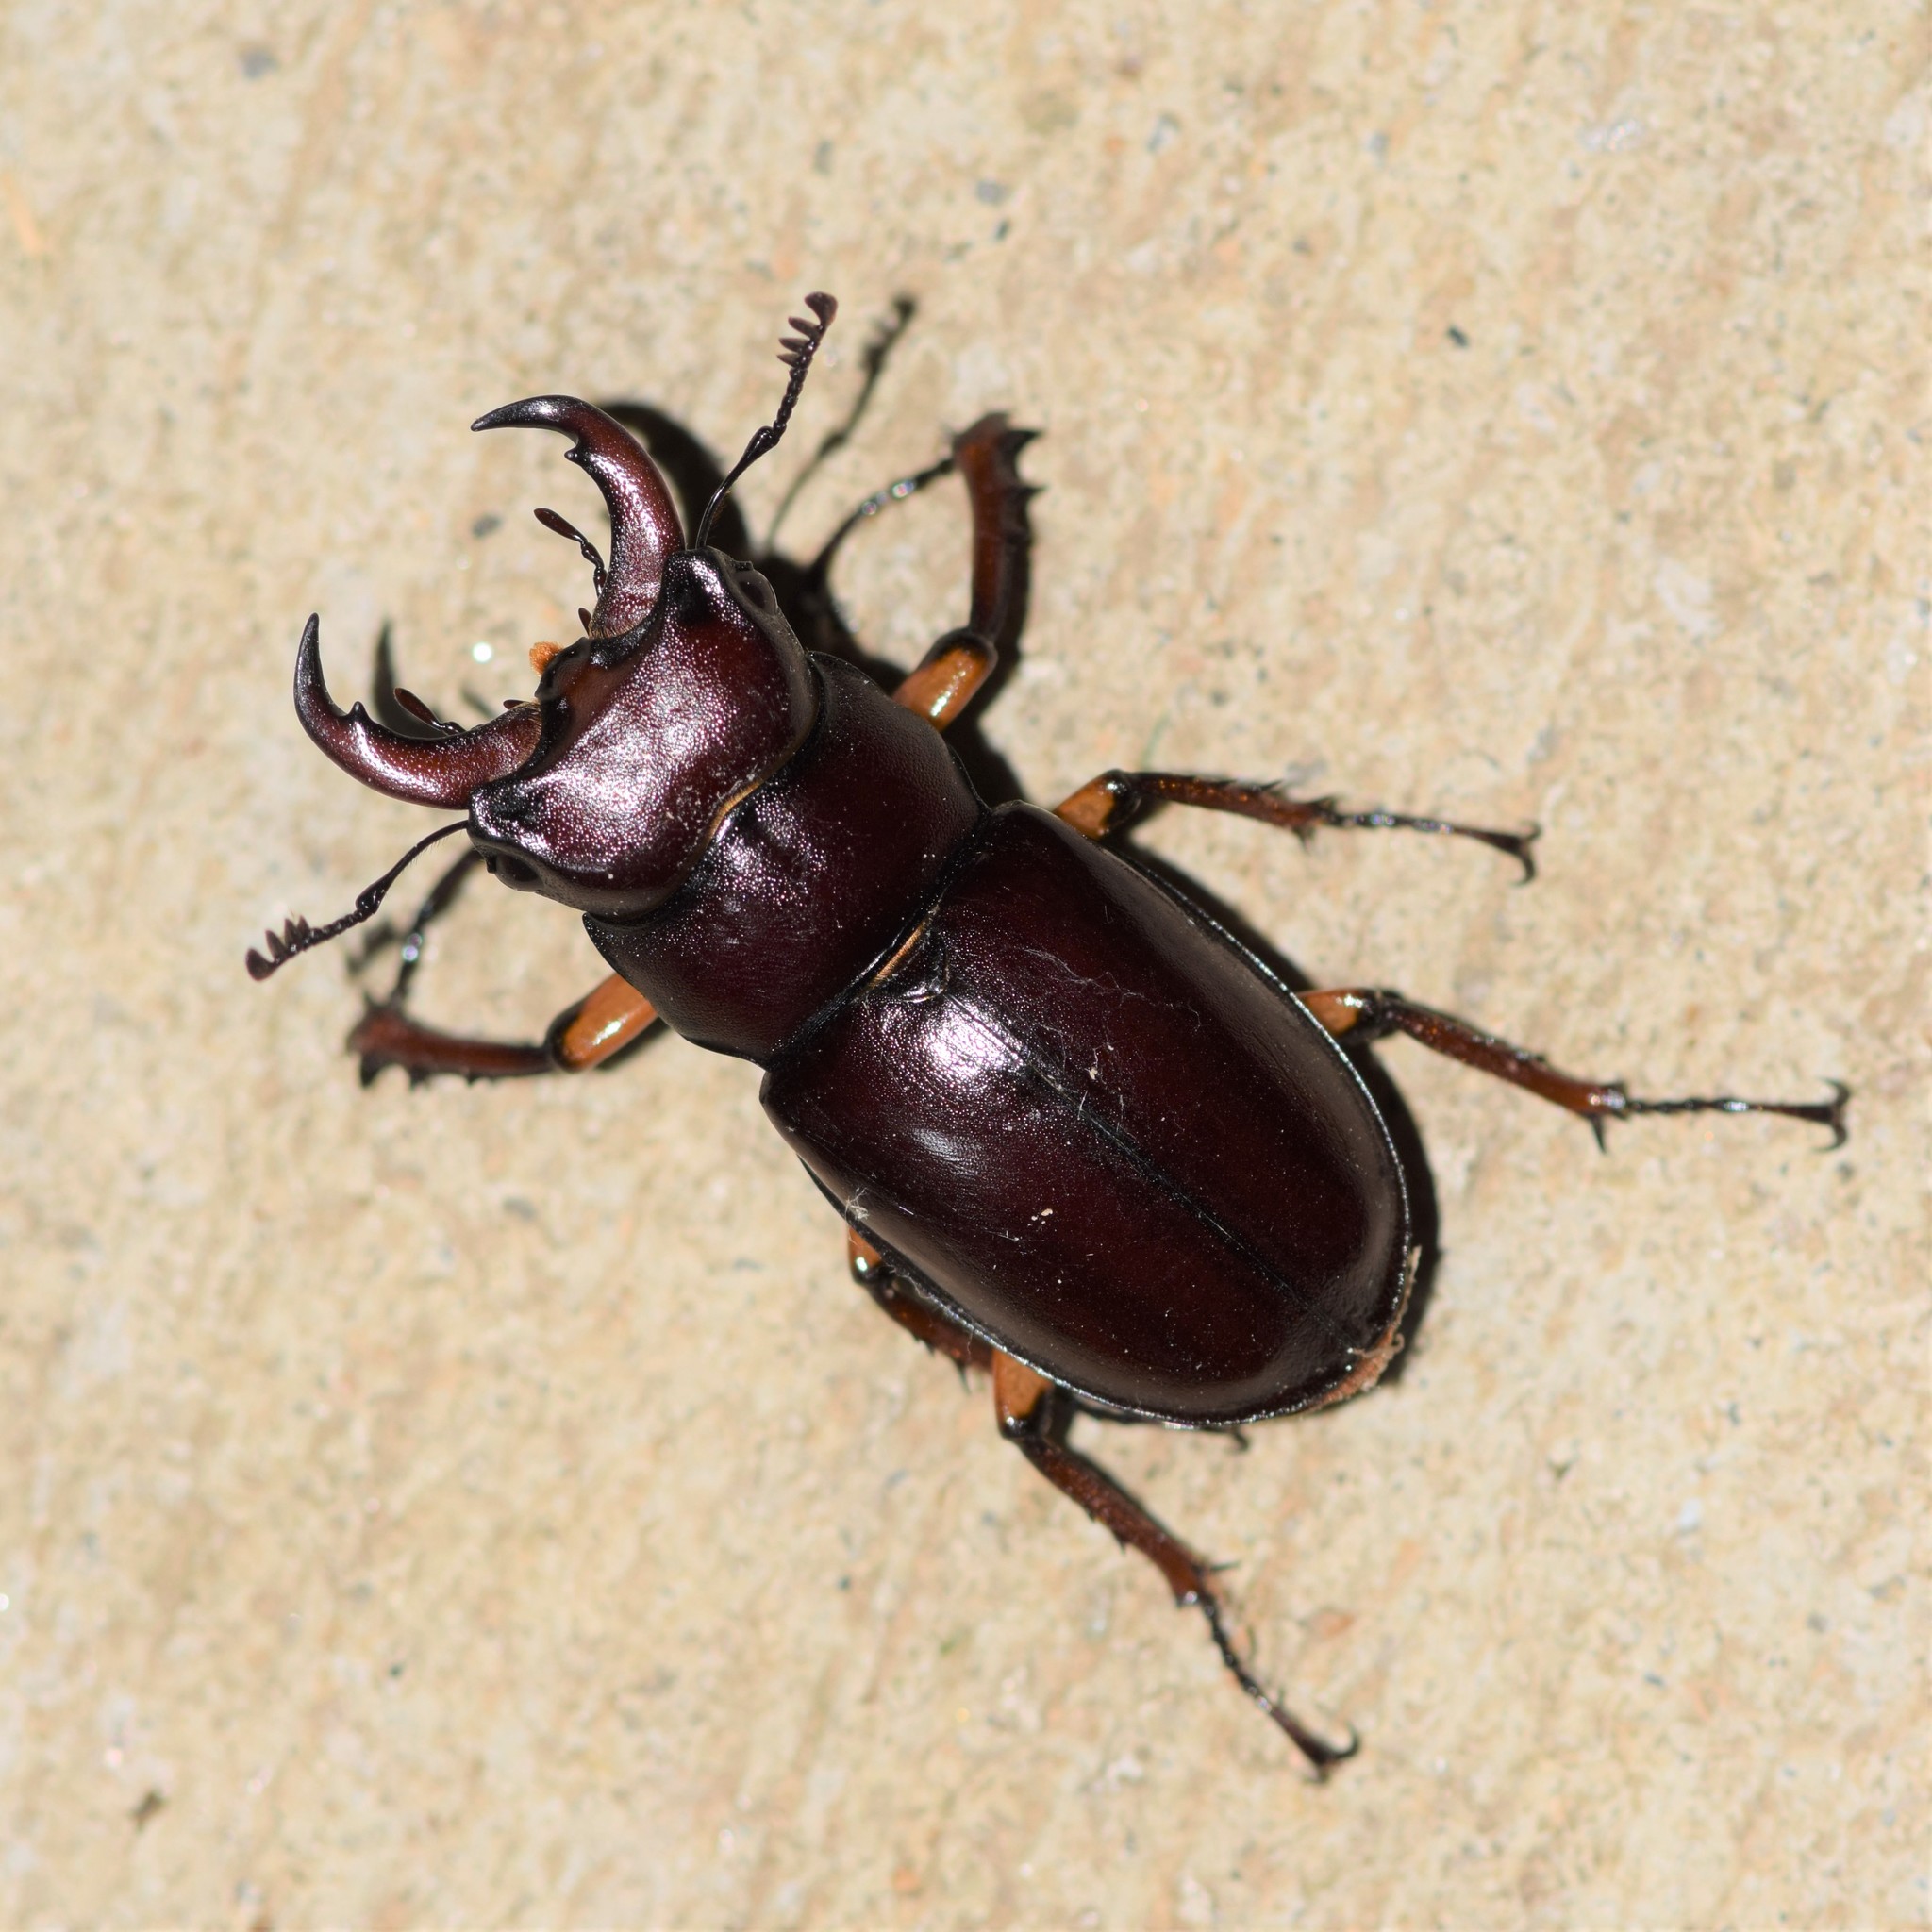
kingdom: Animalia
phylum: Arthropoda
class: Insecta
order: Coleoptera
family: Lucanidae
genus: Lucanus
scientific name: Lucanus capreolus
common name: Stag beetle
